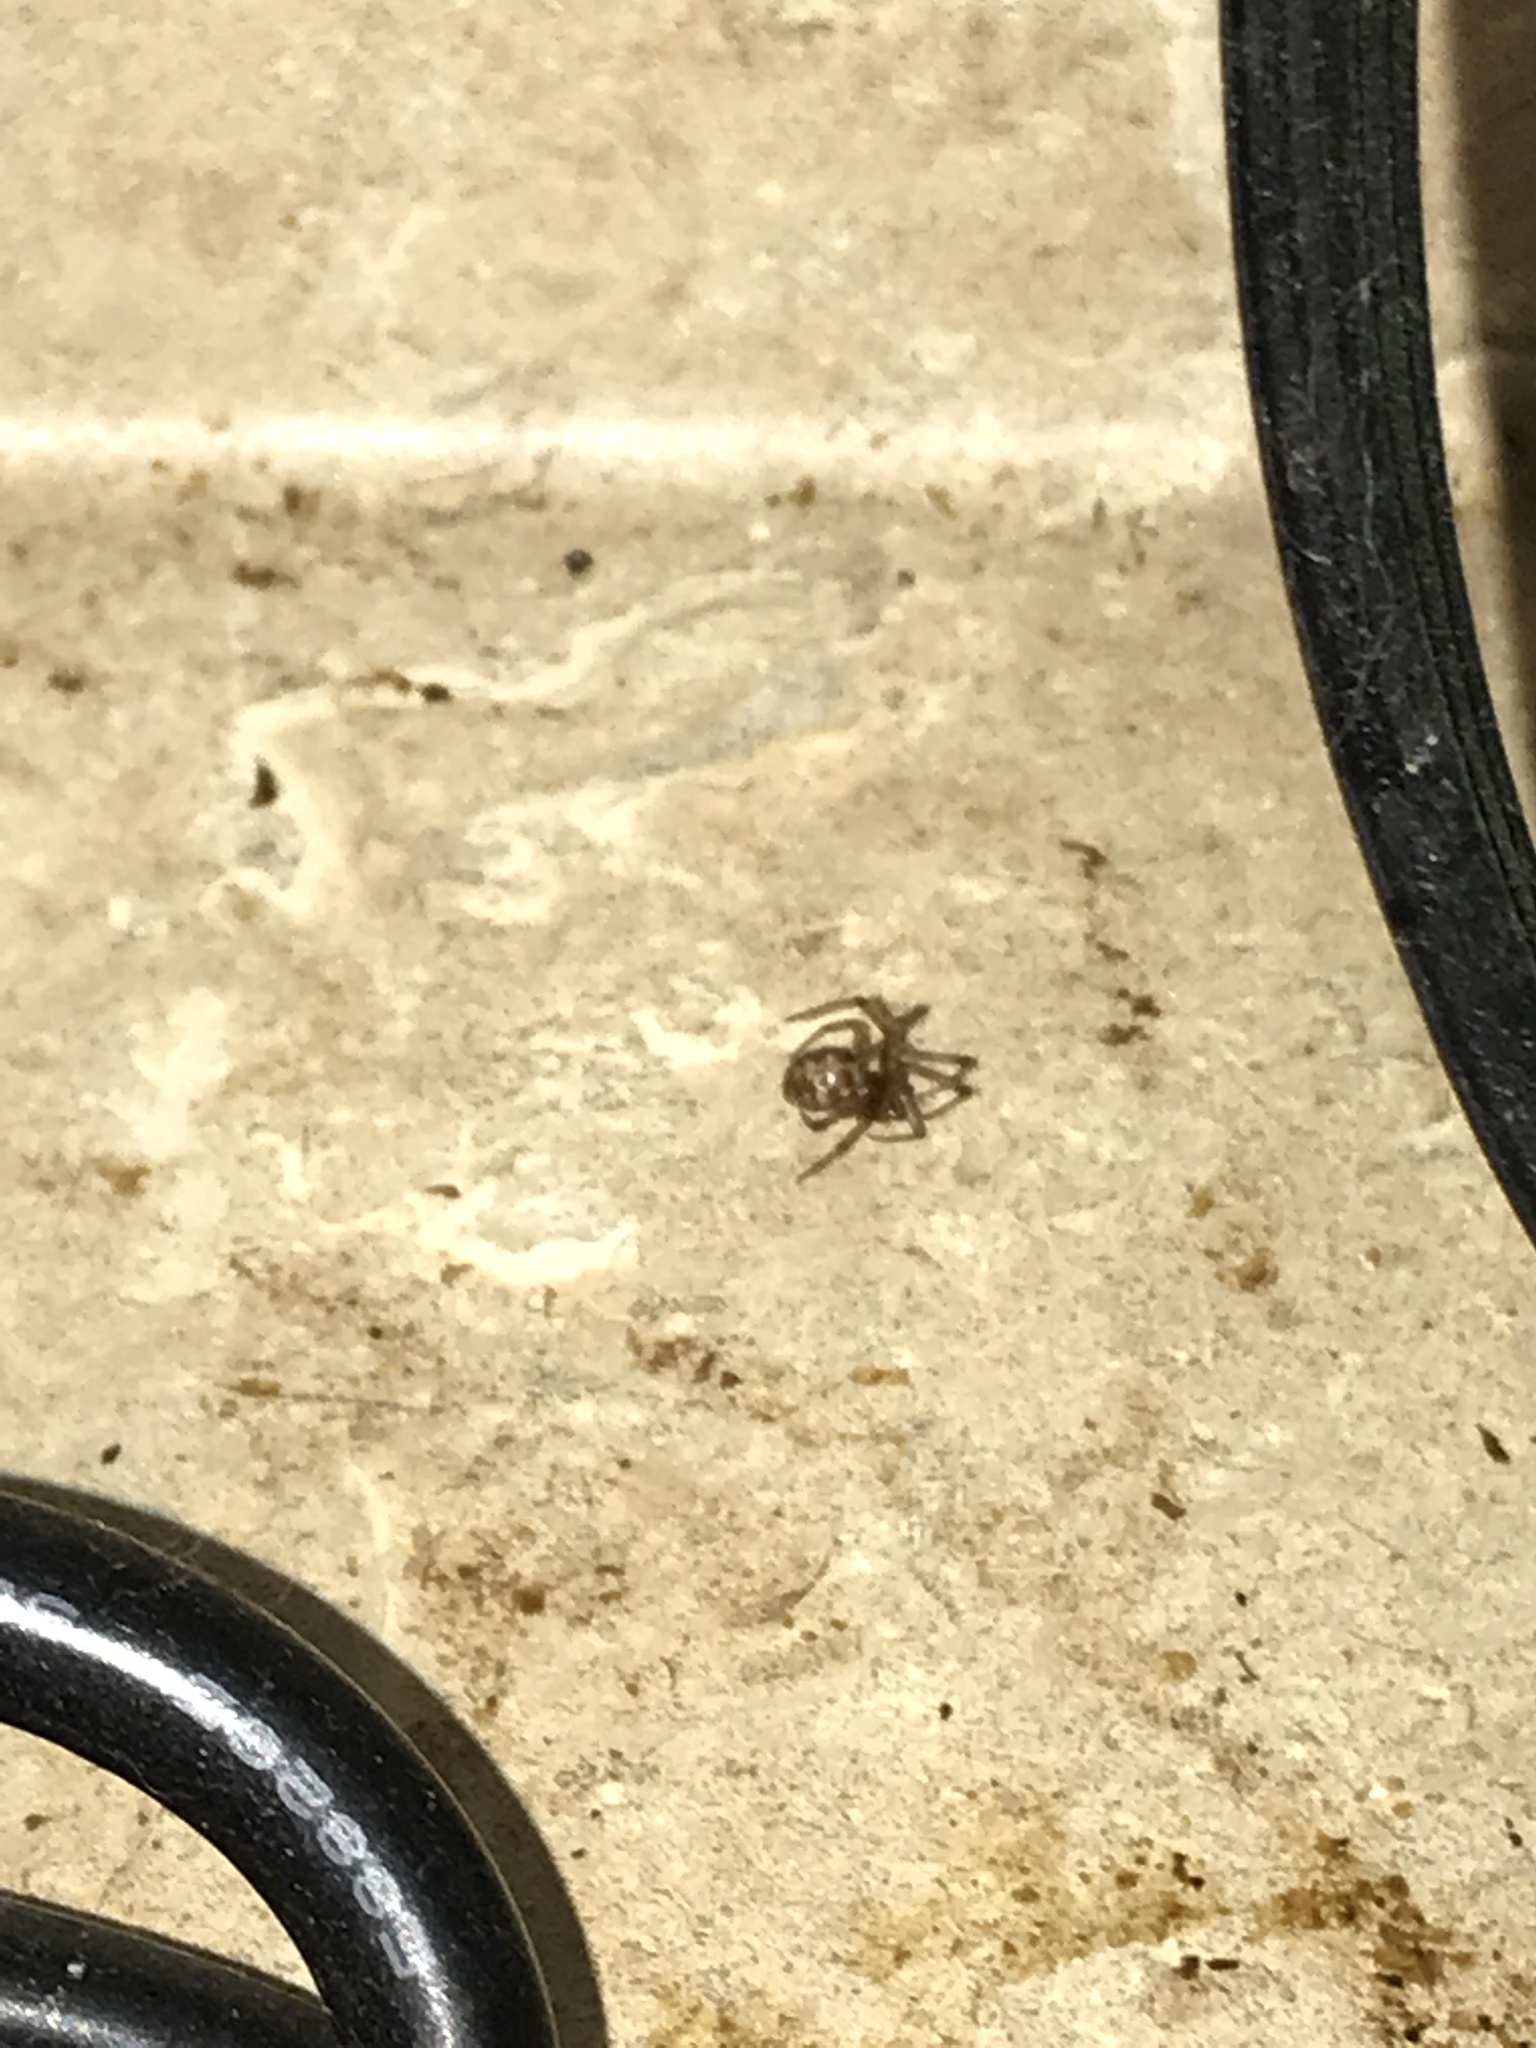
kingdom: Animalia
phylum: Arthropoda
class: Arachnida
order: Araneae
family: Theridiidae
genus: Steatoda
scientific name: Steatoda triangulosa
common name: Triangulate bud spider
